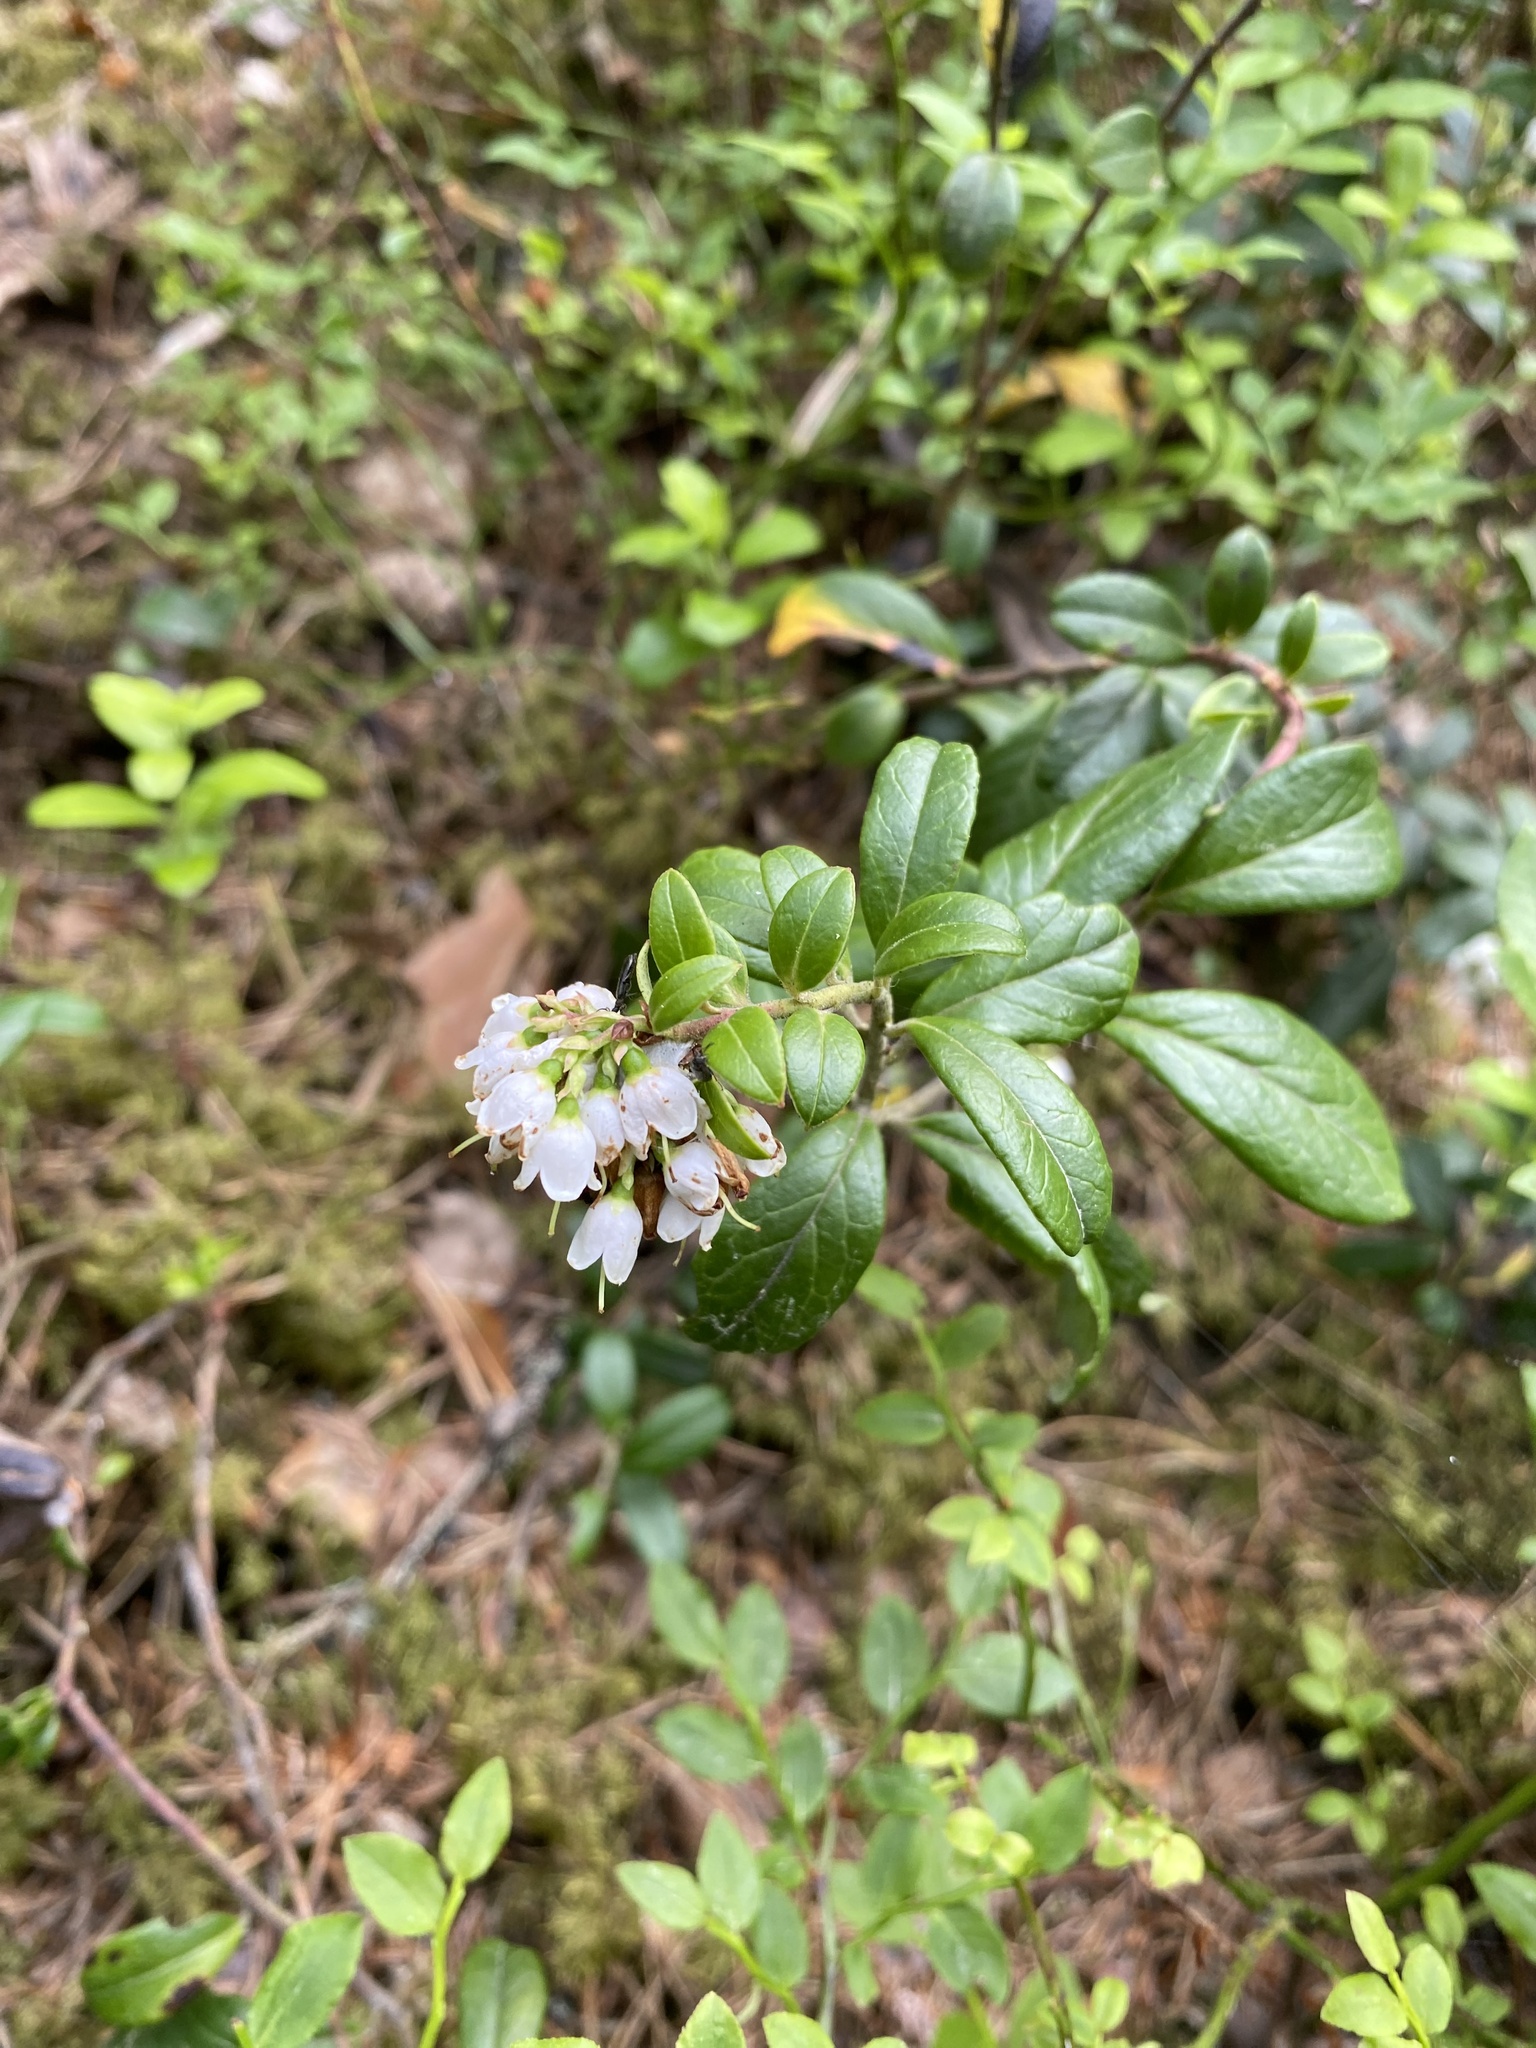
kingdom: Plantae
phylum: Tracheophyta
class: Magnoliopsida
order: Ericales
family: Ericaceae
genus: Vaccinium
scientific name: Vaccinium vitis-idaea
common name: Cowberry
